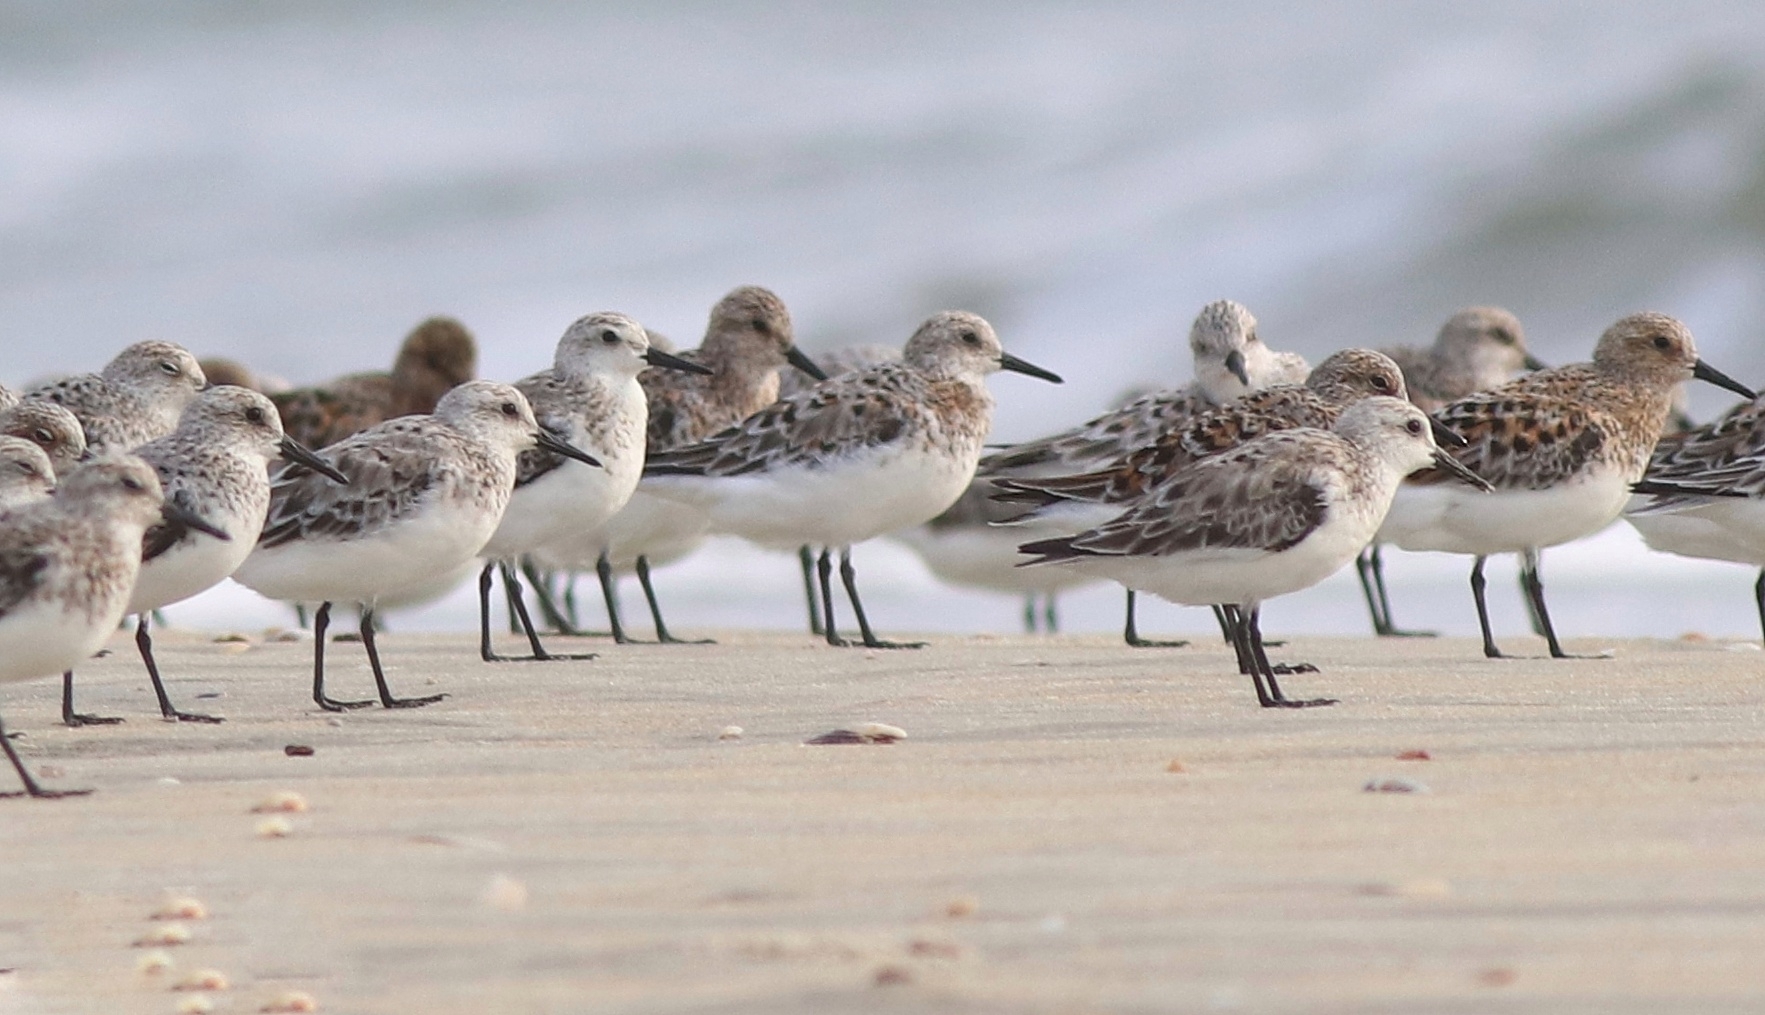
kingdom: Animalia
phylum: Chordata
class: Aves
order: Charadriiformes
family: Scolopacidae
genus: Calidris
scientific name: Calidris alba
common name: Sanderling
